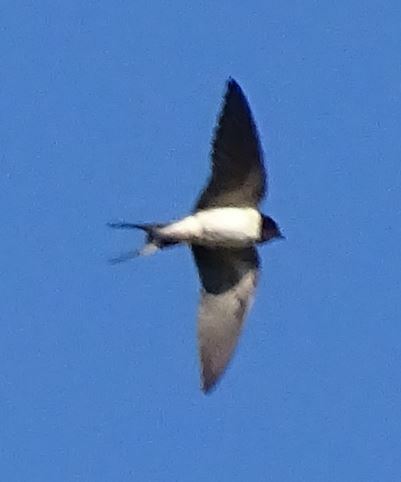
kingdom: Animalia
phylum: Chordata
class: Aves
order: Passeriformes
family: Hirundinidae
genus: Hirundo
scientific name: Hirundo rustica
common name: Barn swallow
